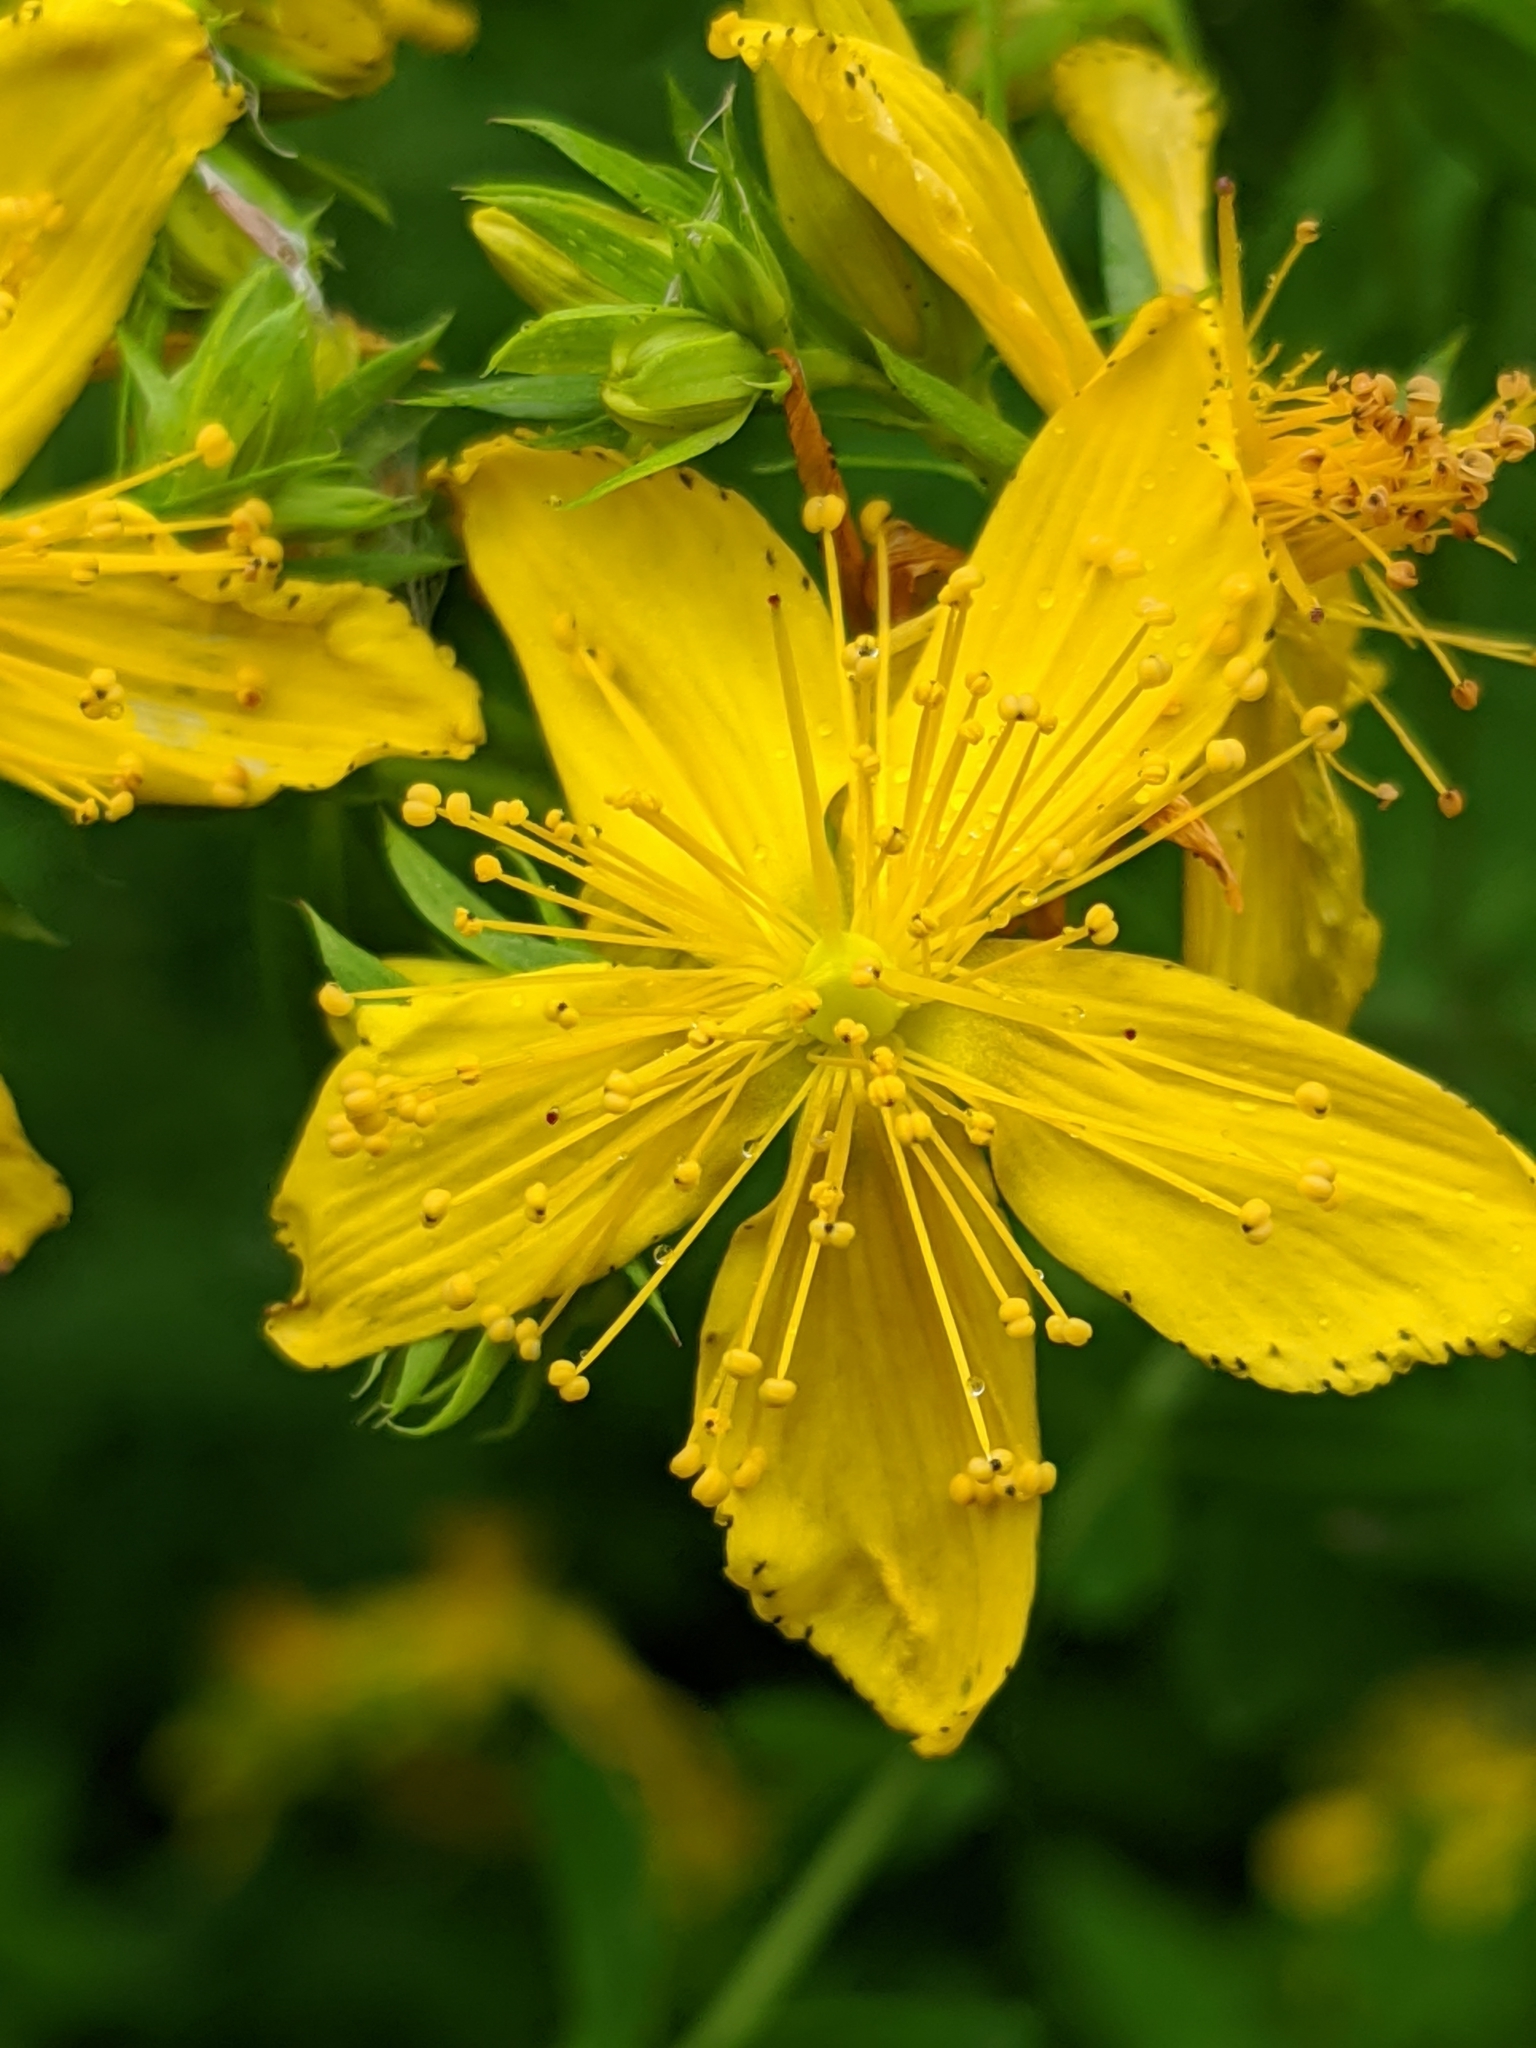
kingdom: Plantae
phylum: Tracheophyta
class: Magnoliopsida
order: Malpighiales
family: Hypericaceae
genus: Hypericum
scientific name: Hypericum perforatum
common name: Common st. johnswort
